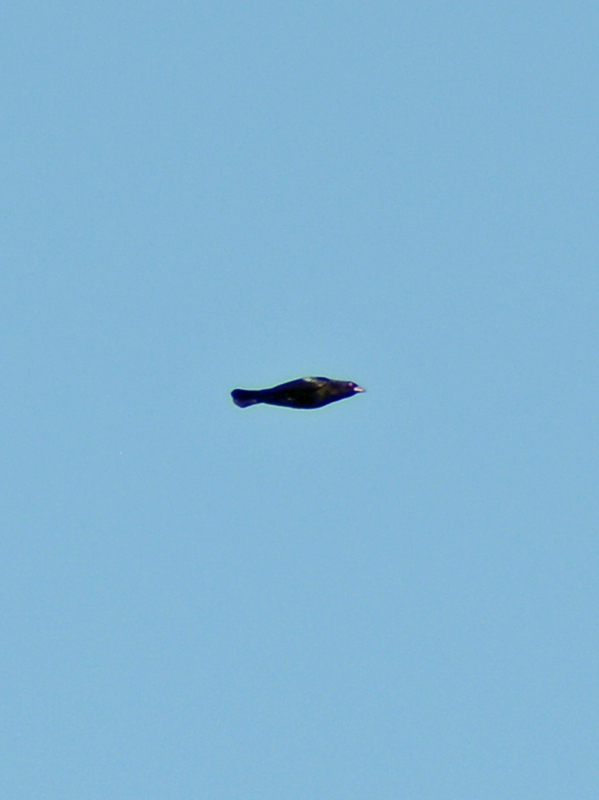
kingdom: Animalia
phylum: Chordata
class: Aves
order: Passeriformes
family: Icteridae
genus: Molothrus
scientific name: Molothrus aeneus
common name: Bronzed cowbird
